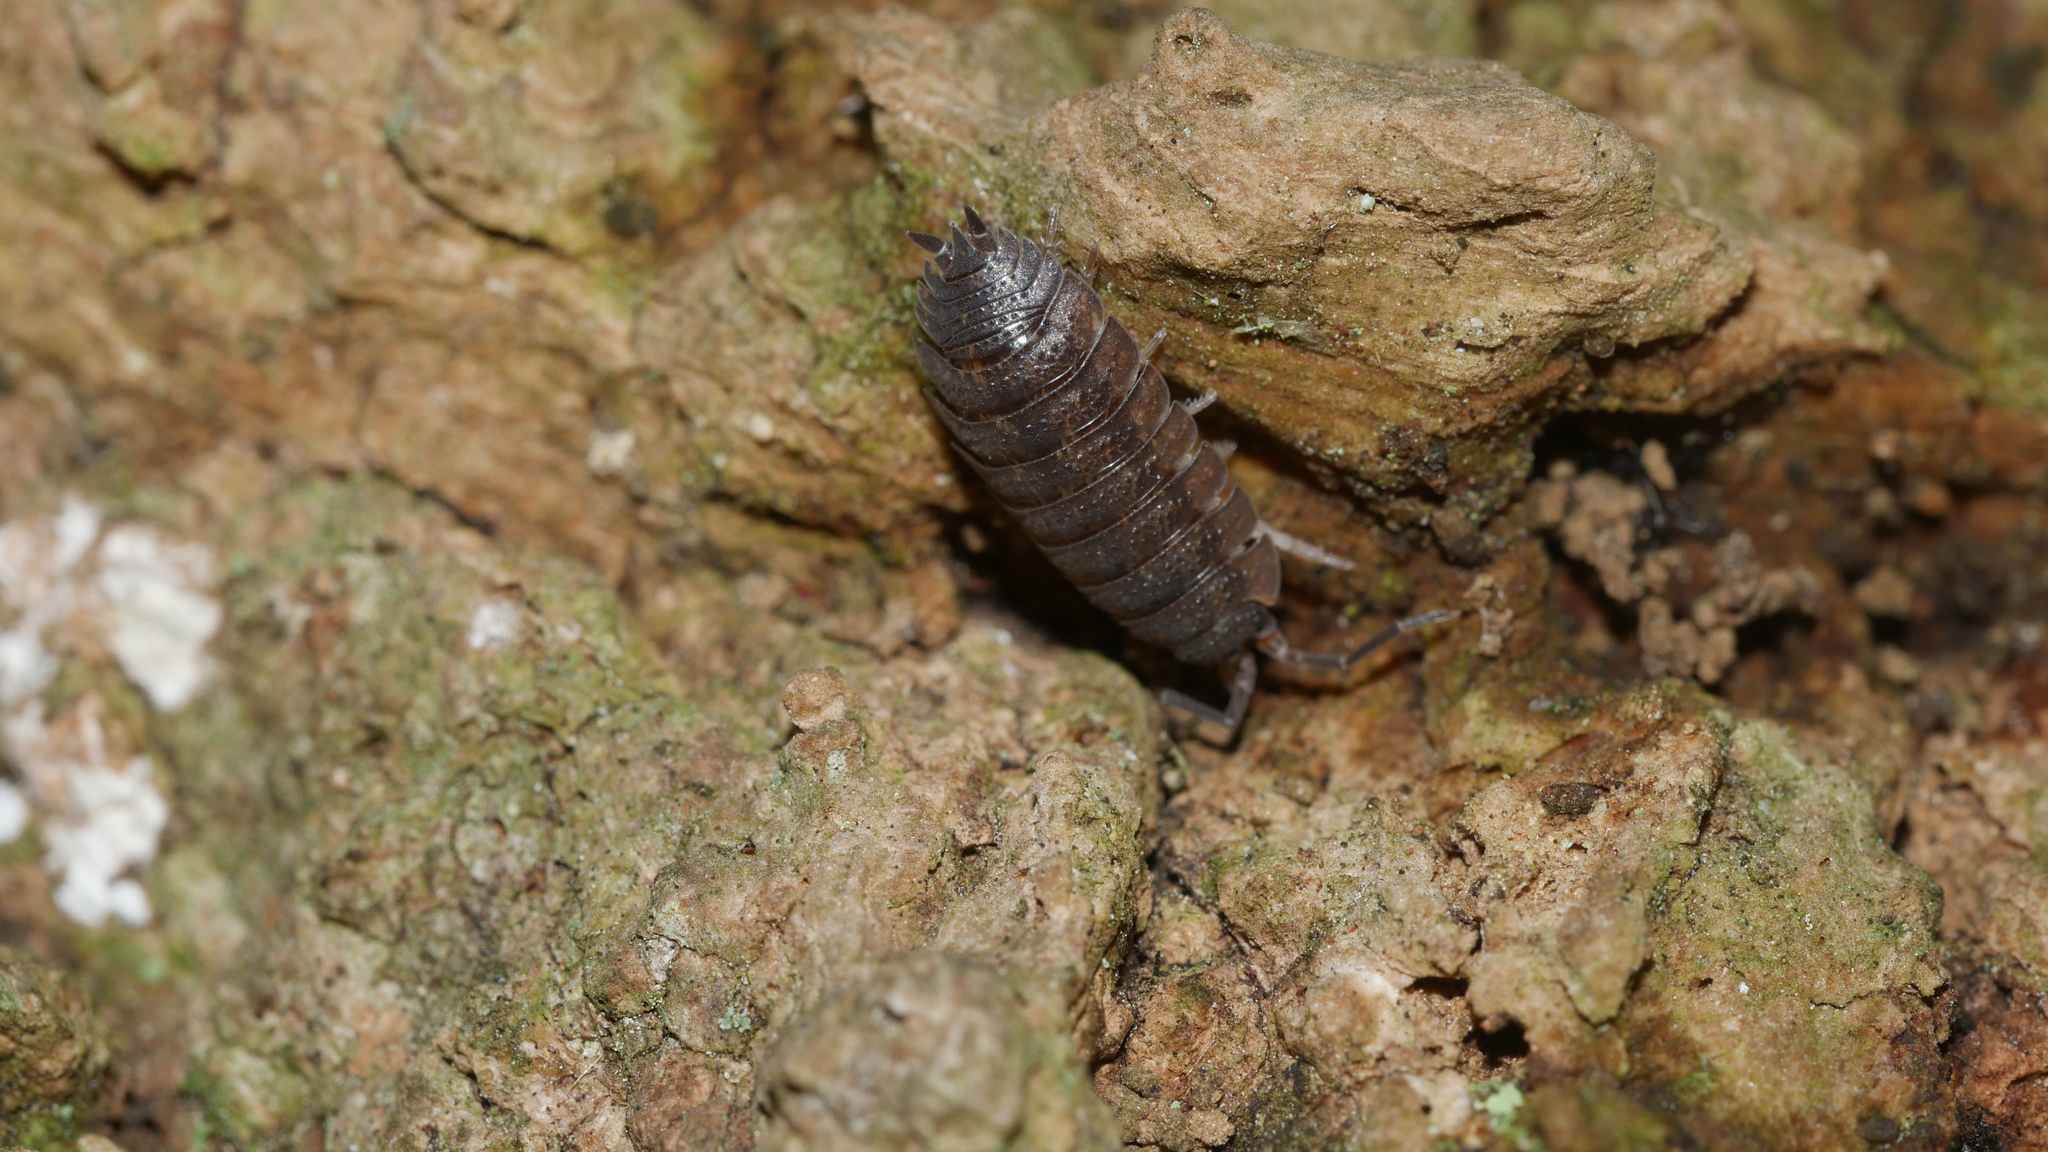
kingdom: Animalia
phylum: Arthropoda
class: Malacostraca
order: Isopoda
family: Porcellionidae
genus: Porcellio
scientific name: Porcellio scaber
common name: Common rough woodlouse
